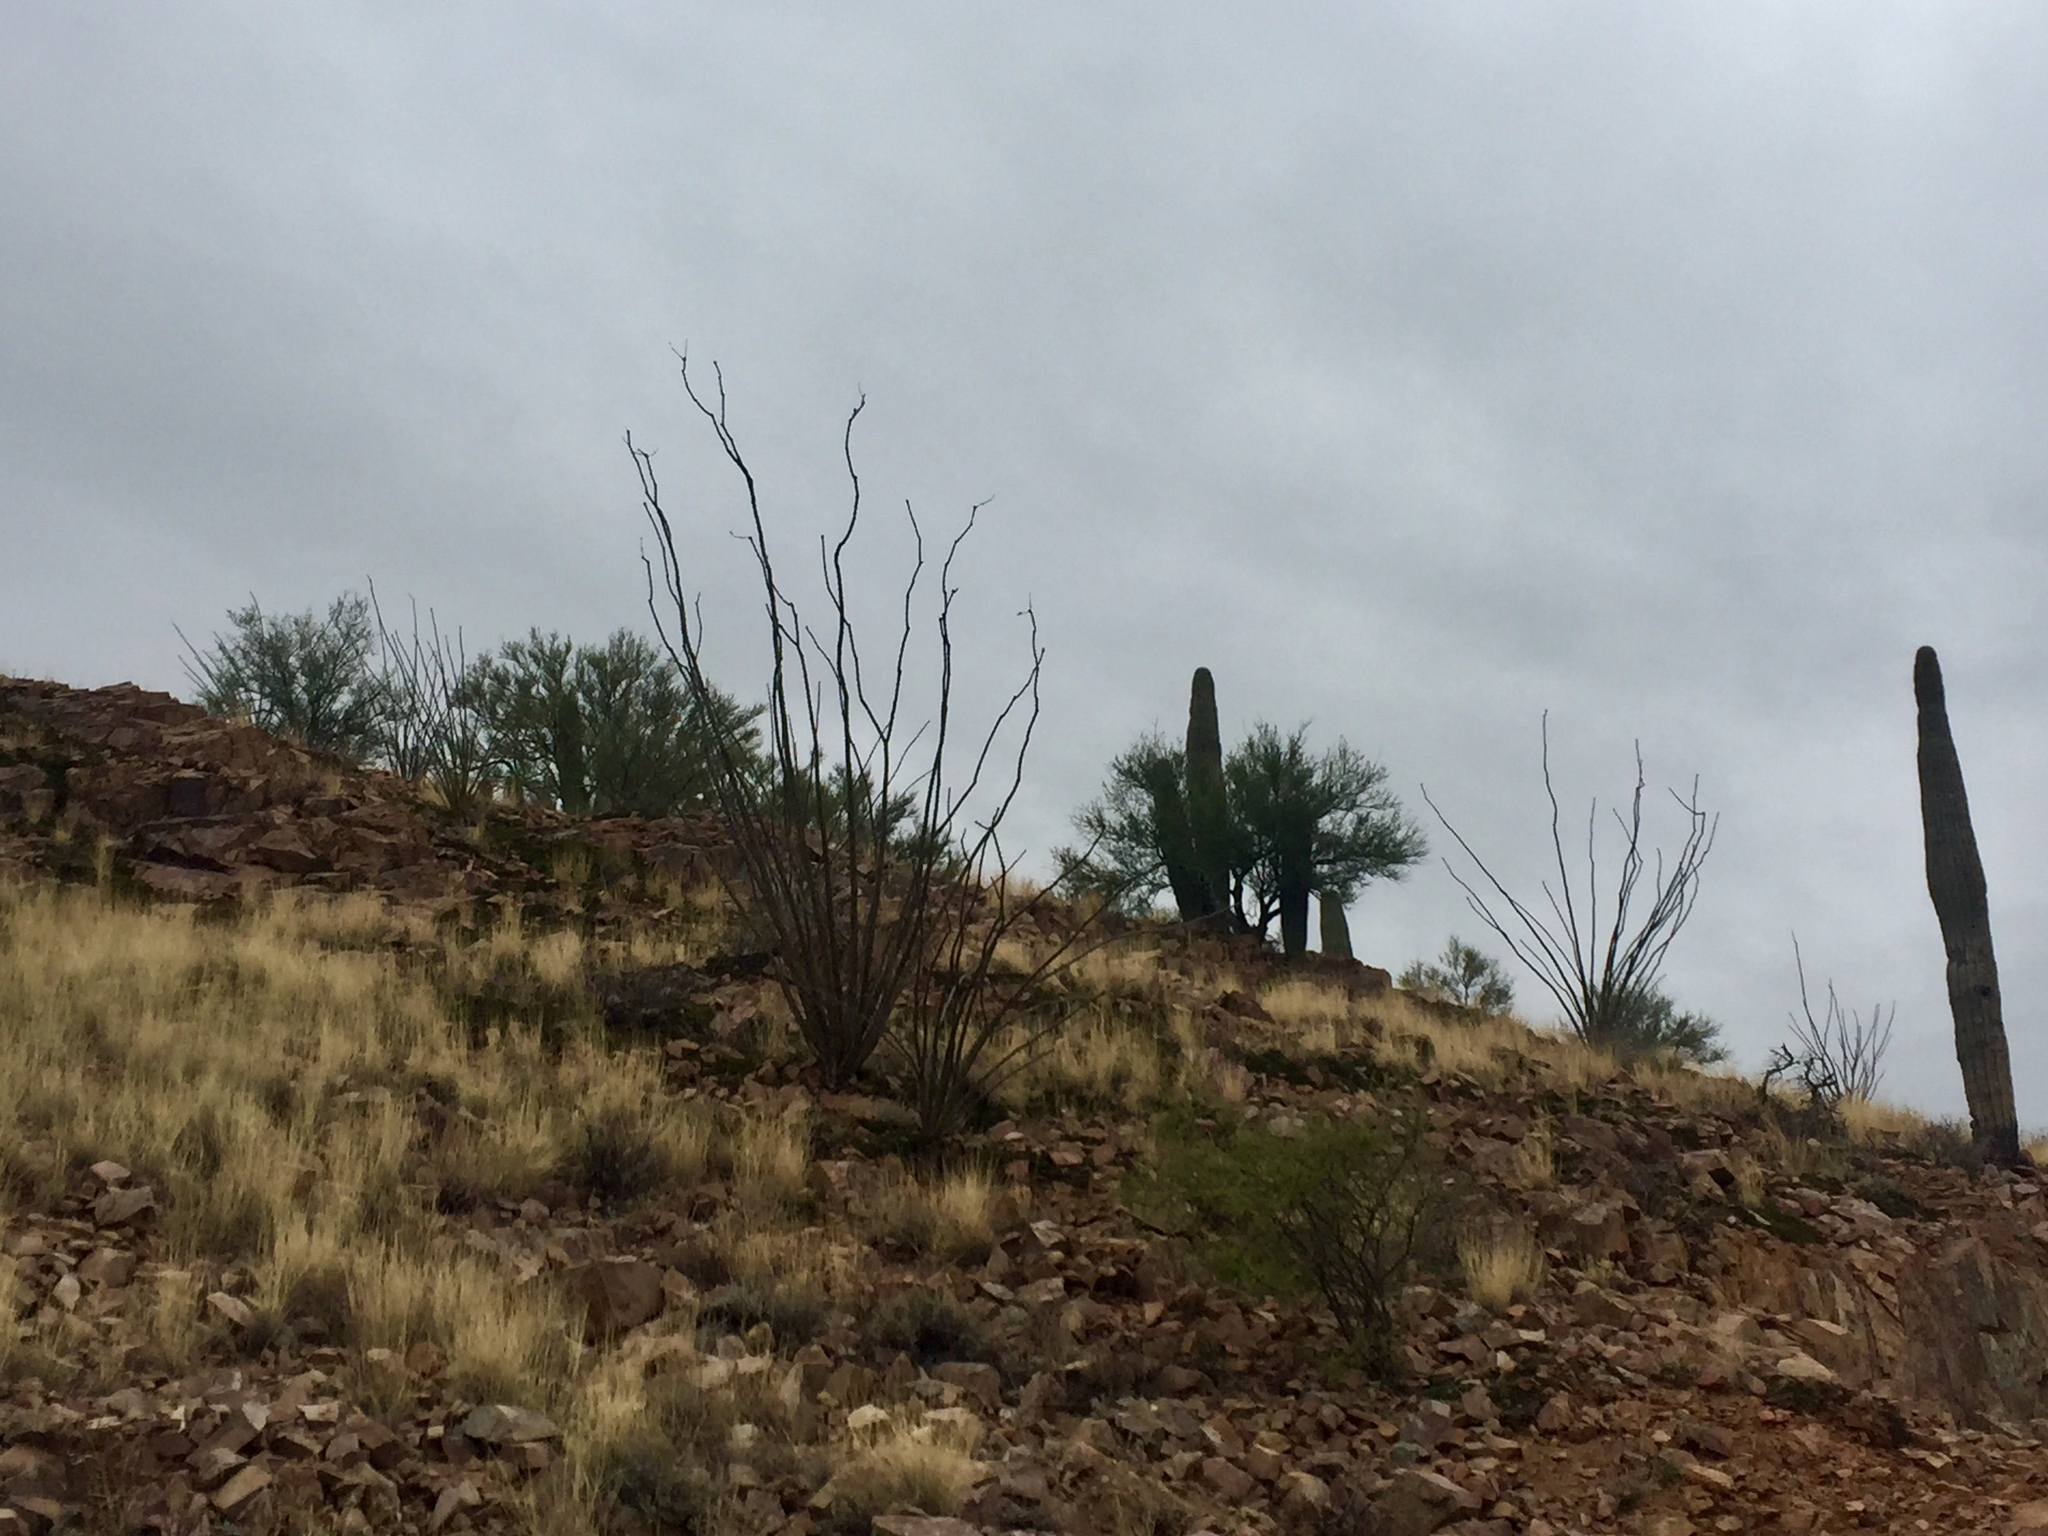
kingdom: Plantae
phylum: Tracheophyta
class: Magnoliopsida
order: Ericales
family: Fouquieriaceae
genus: Fouquieria
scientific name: Fouquieria splendens
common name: Vine-cactus
